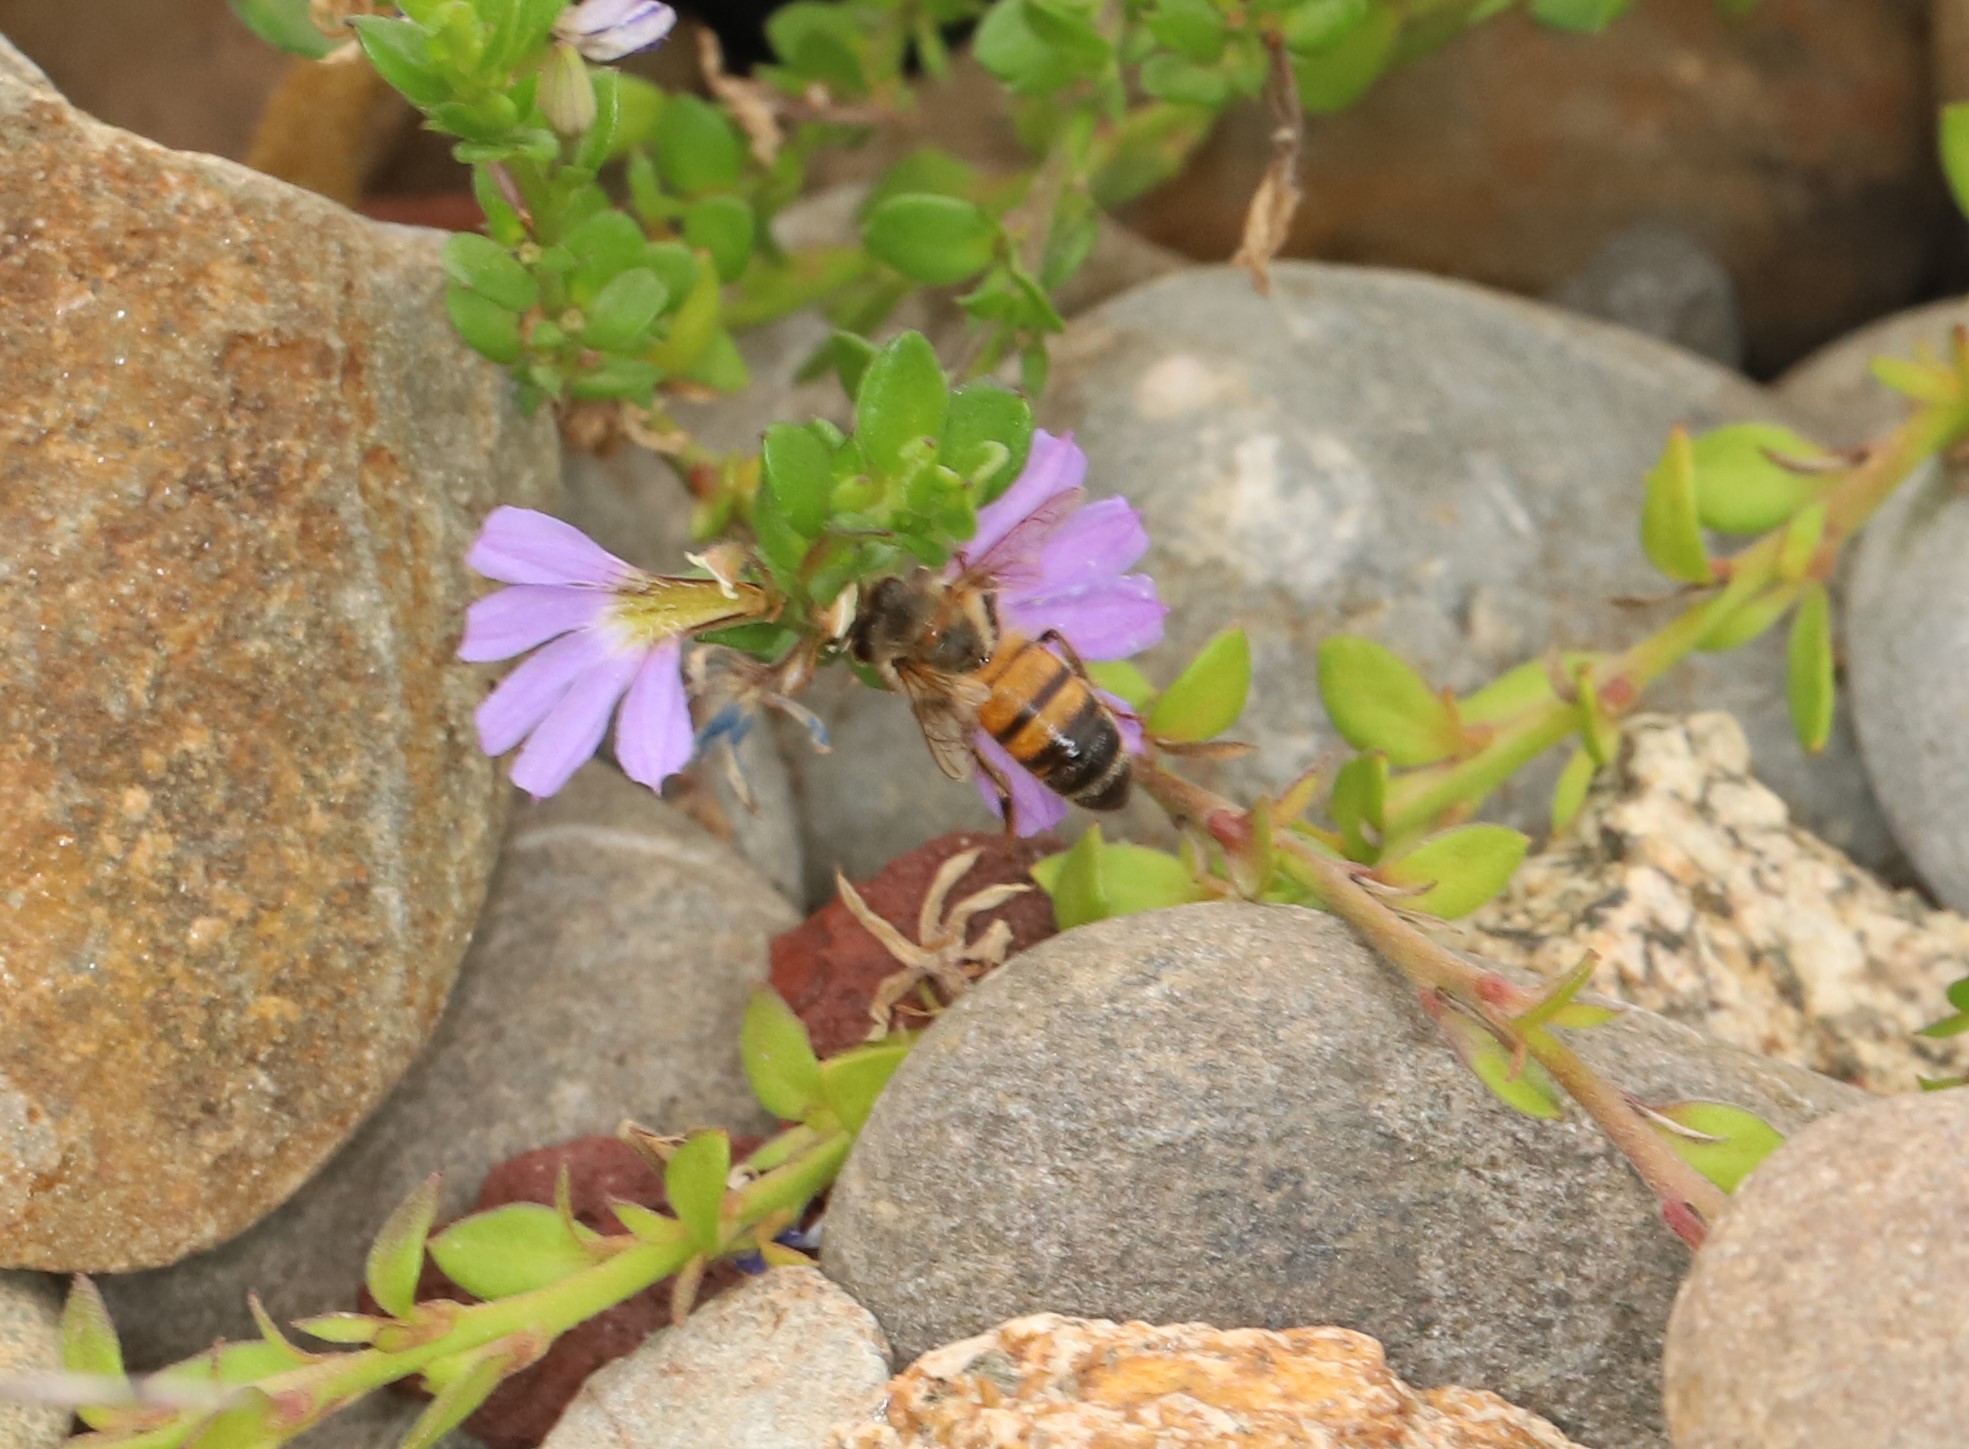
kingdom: Animalia
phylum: Arthropoda
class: Insecta
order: Hymenoptera
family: Apidae
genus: Apis
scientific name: Apis mellifera
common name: Honey bee
